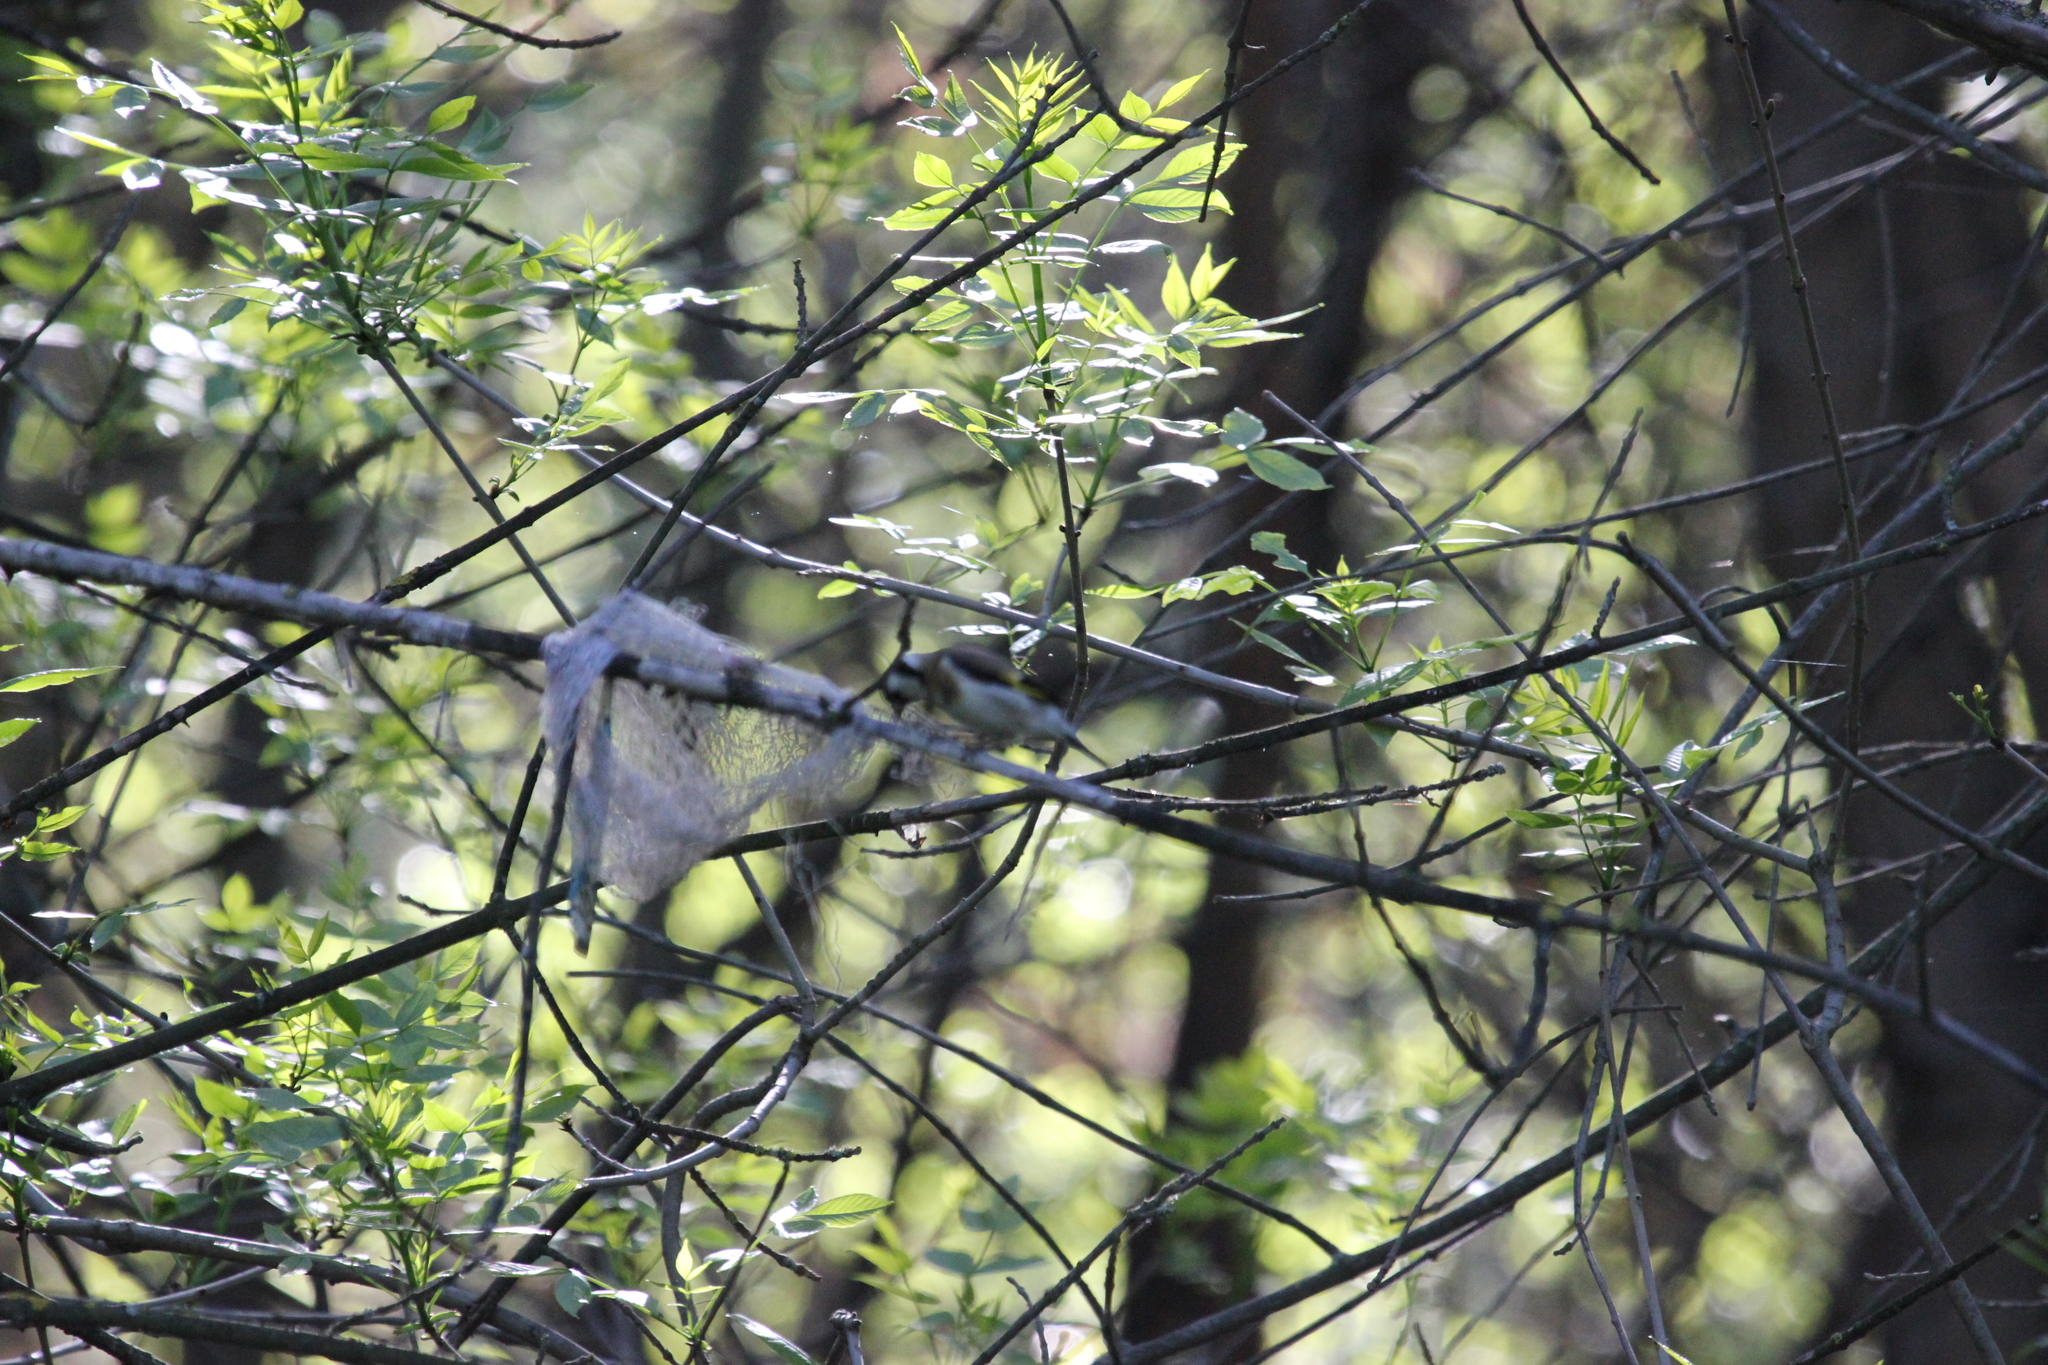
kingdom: Animalia
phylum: Chordata
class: Aves
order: Passeriformes
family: Fringillidae
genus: Carduelis
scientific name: Carduelis carduelis
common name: European goldfinch
